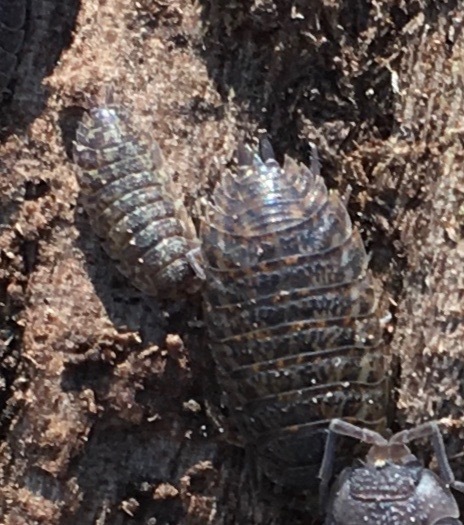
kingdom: Animalia
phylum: Arthropoda
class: Malacostraca
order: Isopoda
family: Trachelipodidae
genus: Trachelipus
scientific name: Trachelipus rathkii
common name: Isopod
